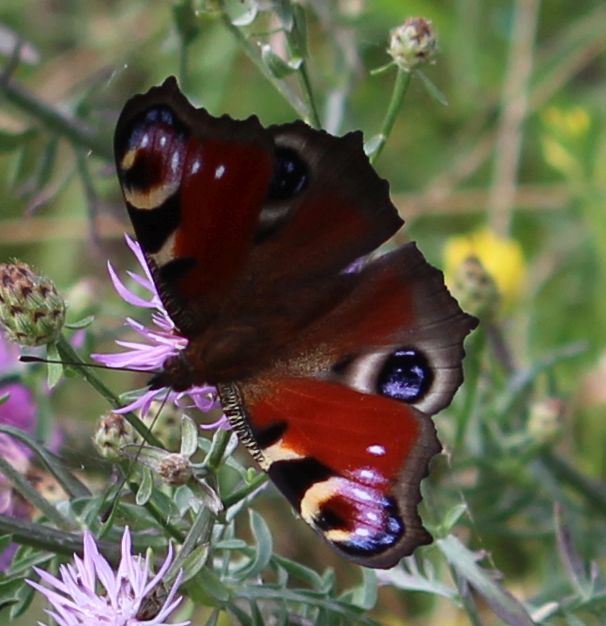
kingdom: Animalia
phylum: Arthropoda
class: Insecta
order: Lepidoptera
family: Nymphalidae
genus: Aglais
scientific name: Aglais io
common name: Peacock
